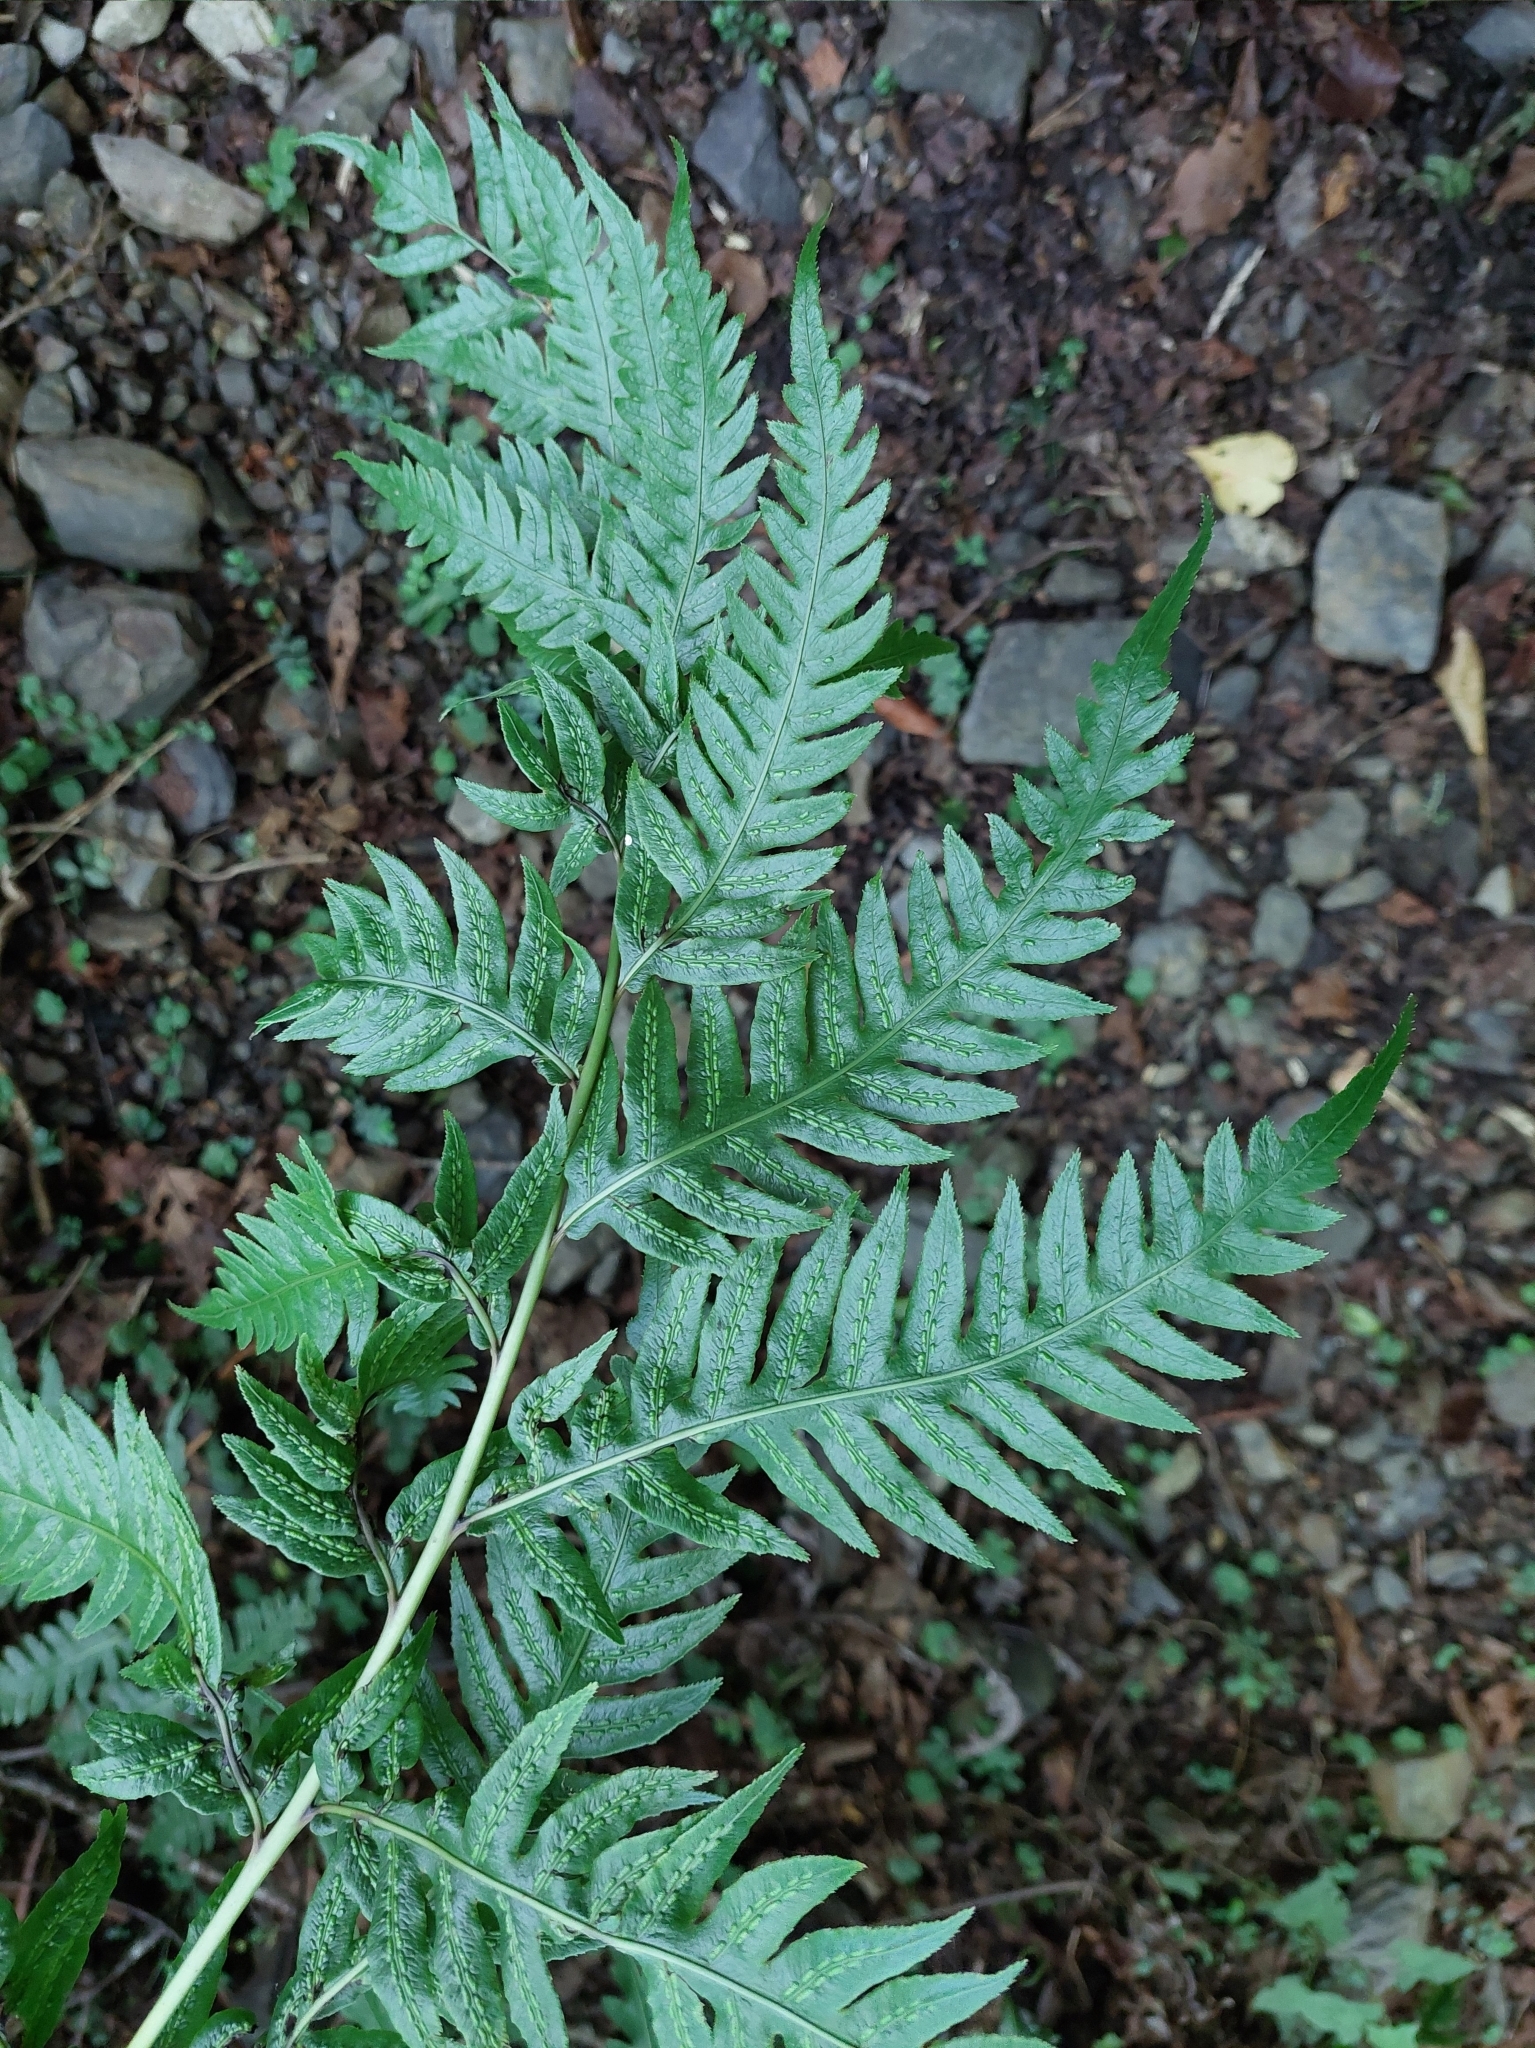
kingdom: Plantae
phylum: Tracheophyta
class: Polypodiopsida
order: Polypodiales
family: Blechnaceae
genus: Woodwardia
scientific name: Woodwardia unigemmata
